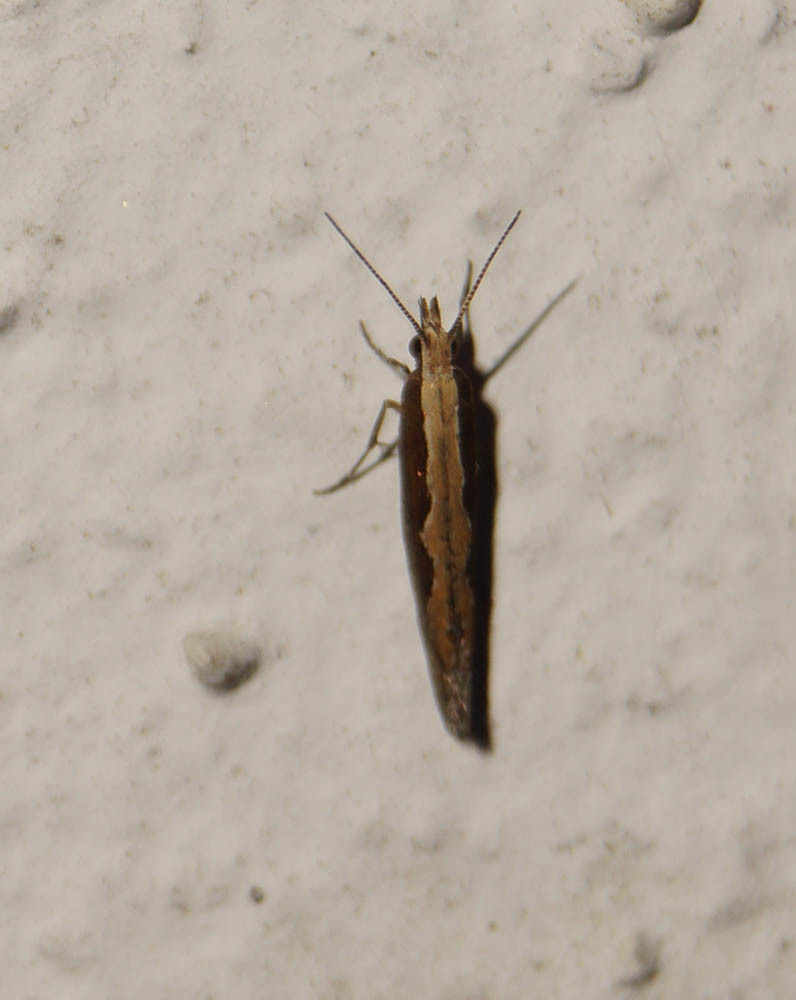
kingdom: Animalia
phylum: Arthropoda
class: Insecta
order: Lepidoptera
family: Plutellidae
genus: Plutella
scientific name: Plutella xylostella
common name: Diamond-back moth
